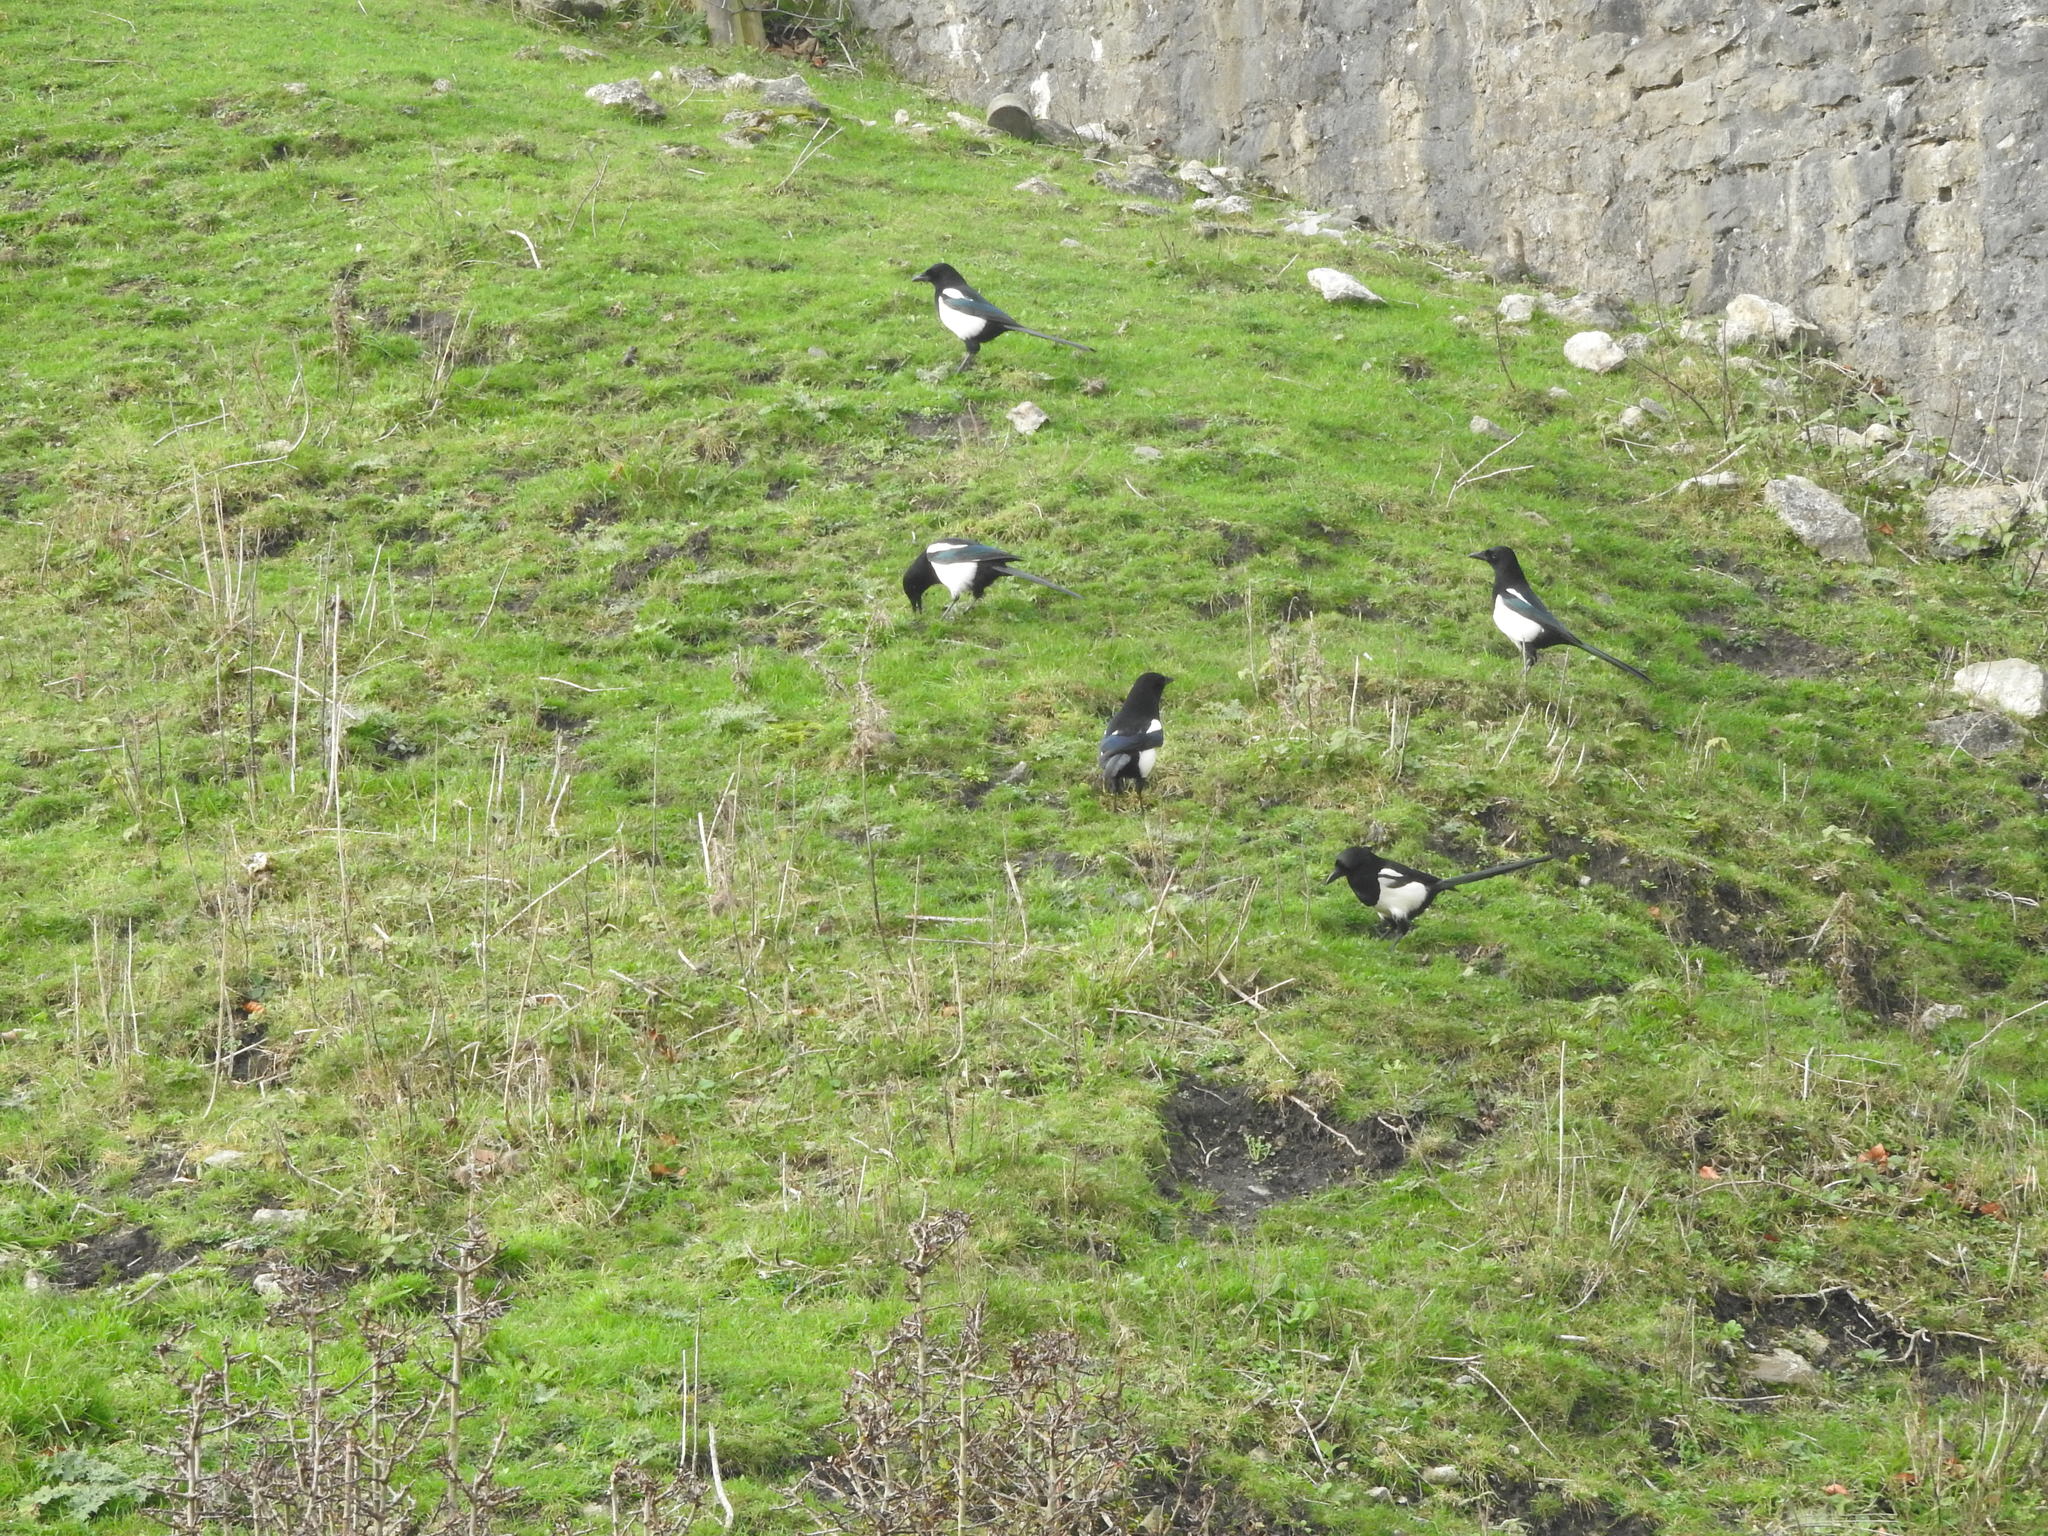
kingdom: Animalia
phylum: Chordata
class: Aves
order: Passeriformes
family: Corvidae
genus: Pica
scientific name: Pica pica
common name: Eurasian magpie
